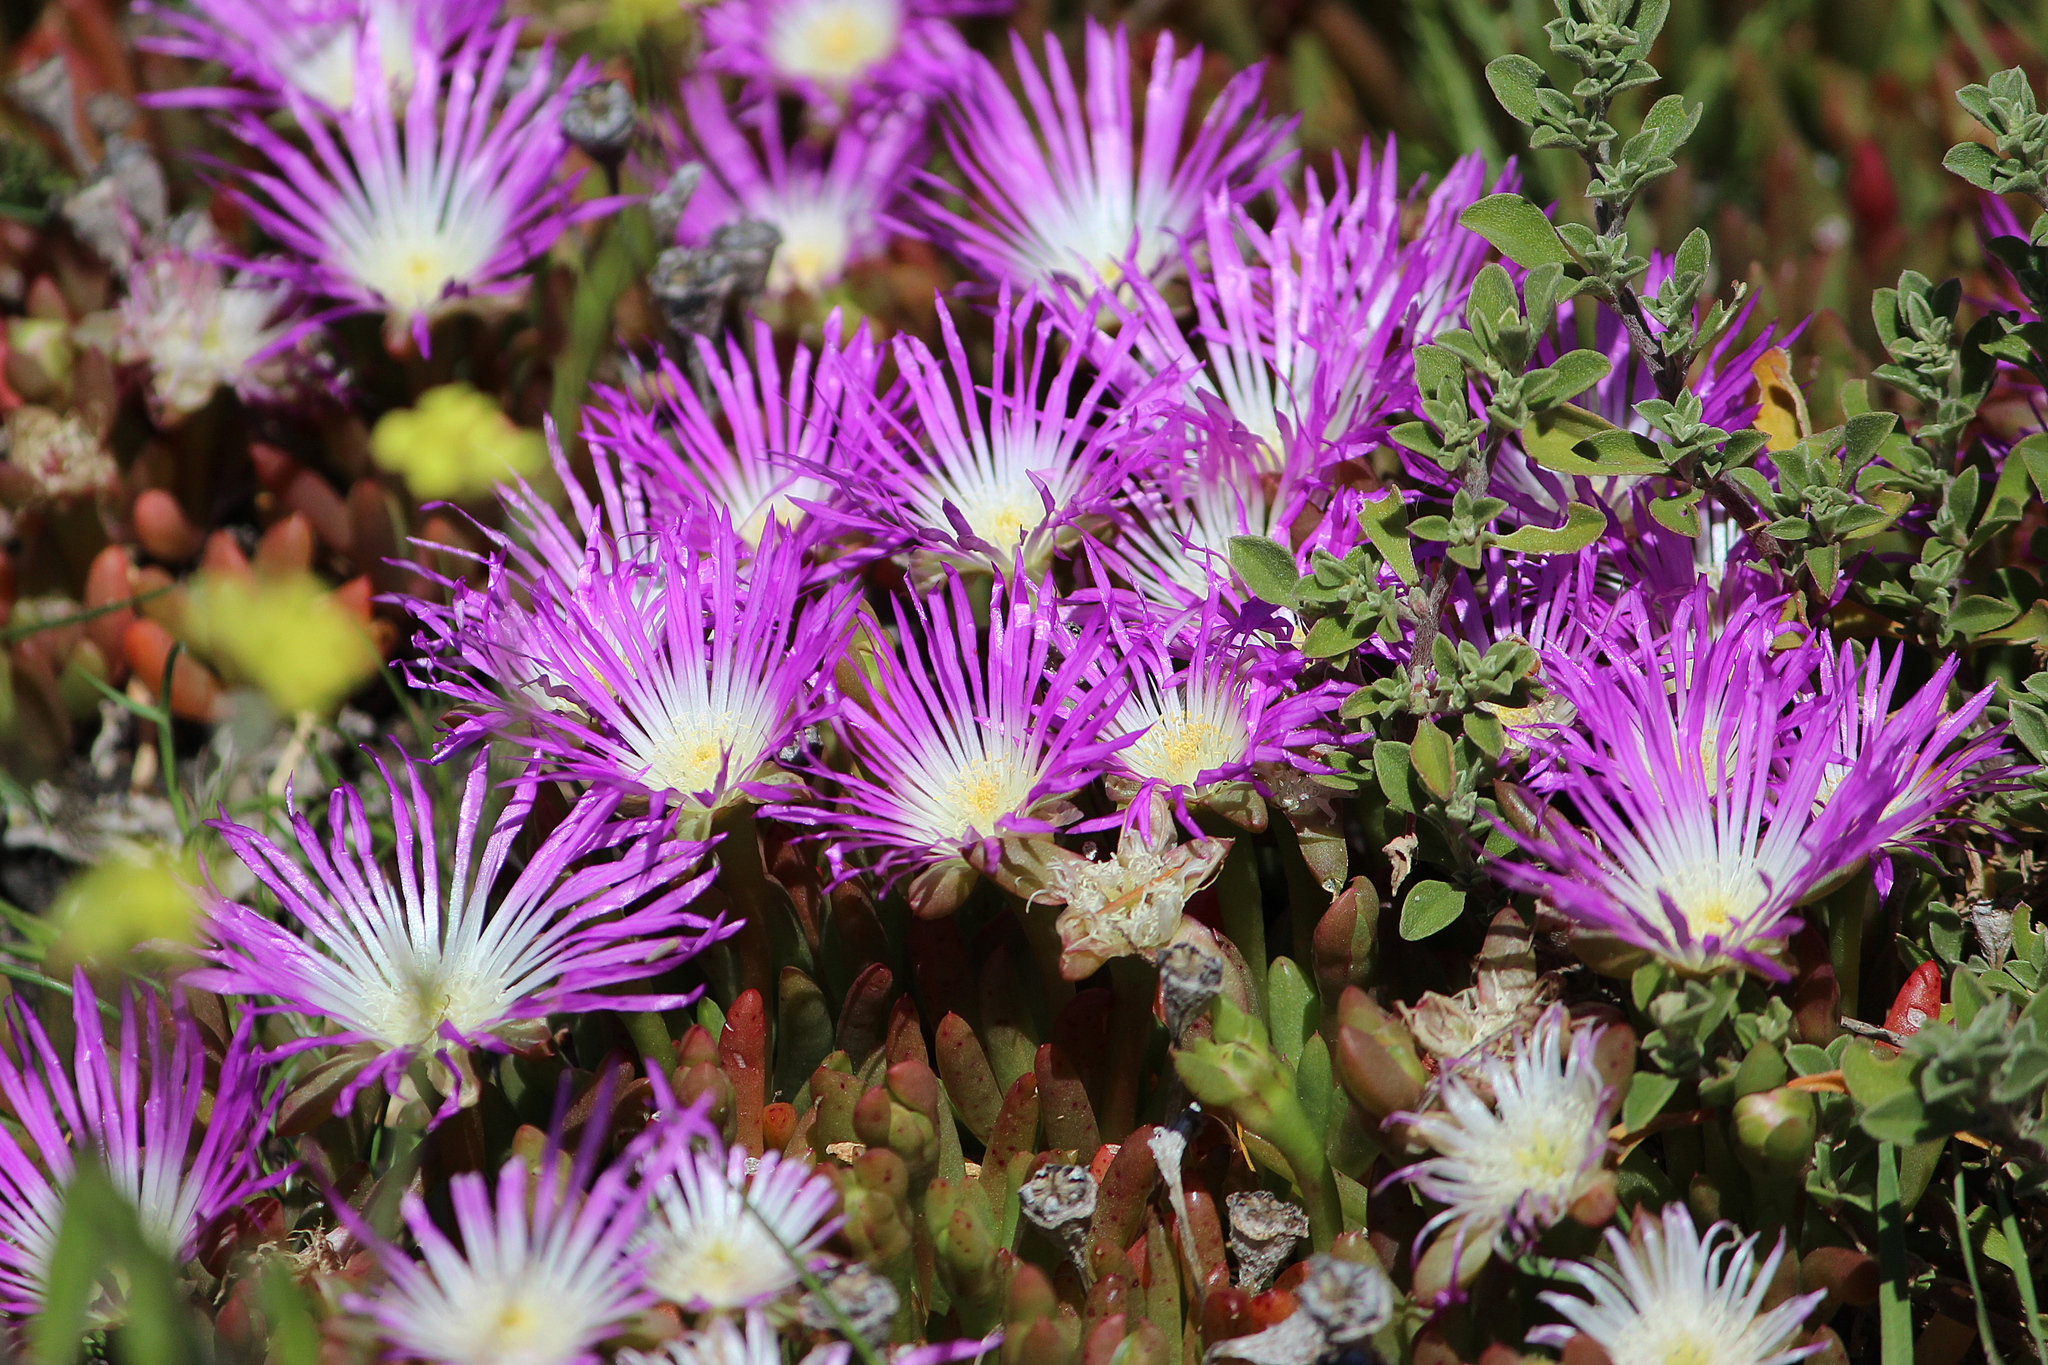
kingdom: Plantae
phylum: Tracheophyta
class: Magnoliopsida
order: Caryophyllales
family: Aizoaceae
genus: Disphyma
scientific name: Disphyma crassifolium
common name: Purple dewplant
